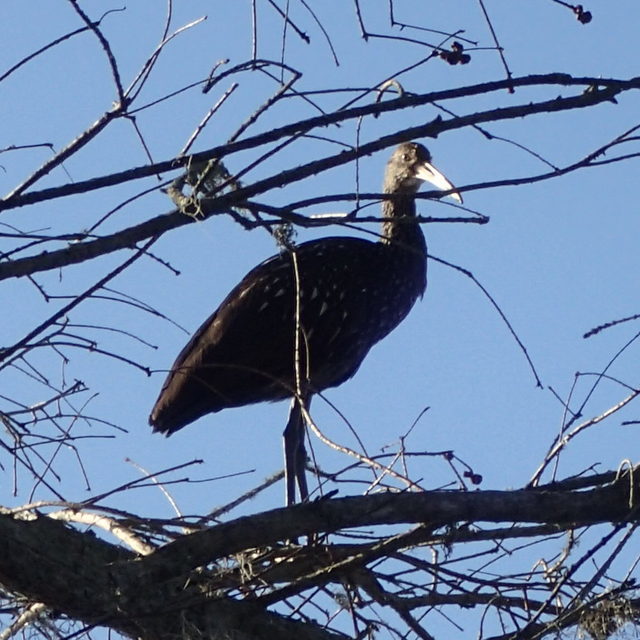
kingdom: Animalia
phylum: Chordata
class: Aves
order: Gruiformes
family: Aramidae
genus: Aramus
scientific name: Aramus guarauna
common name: Limpkin
